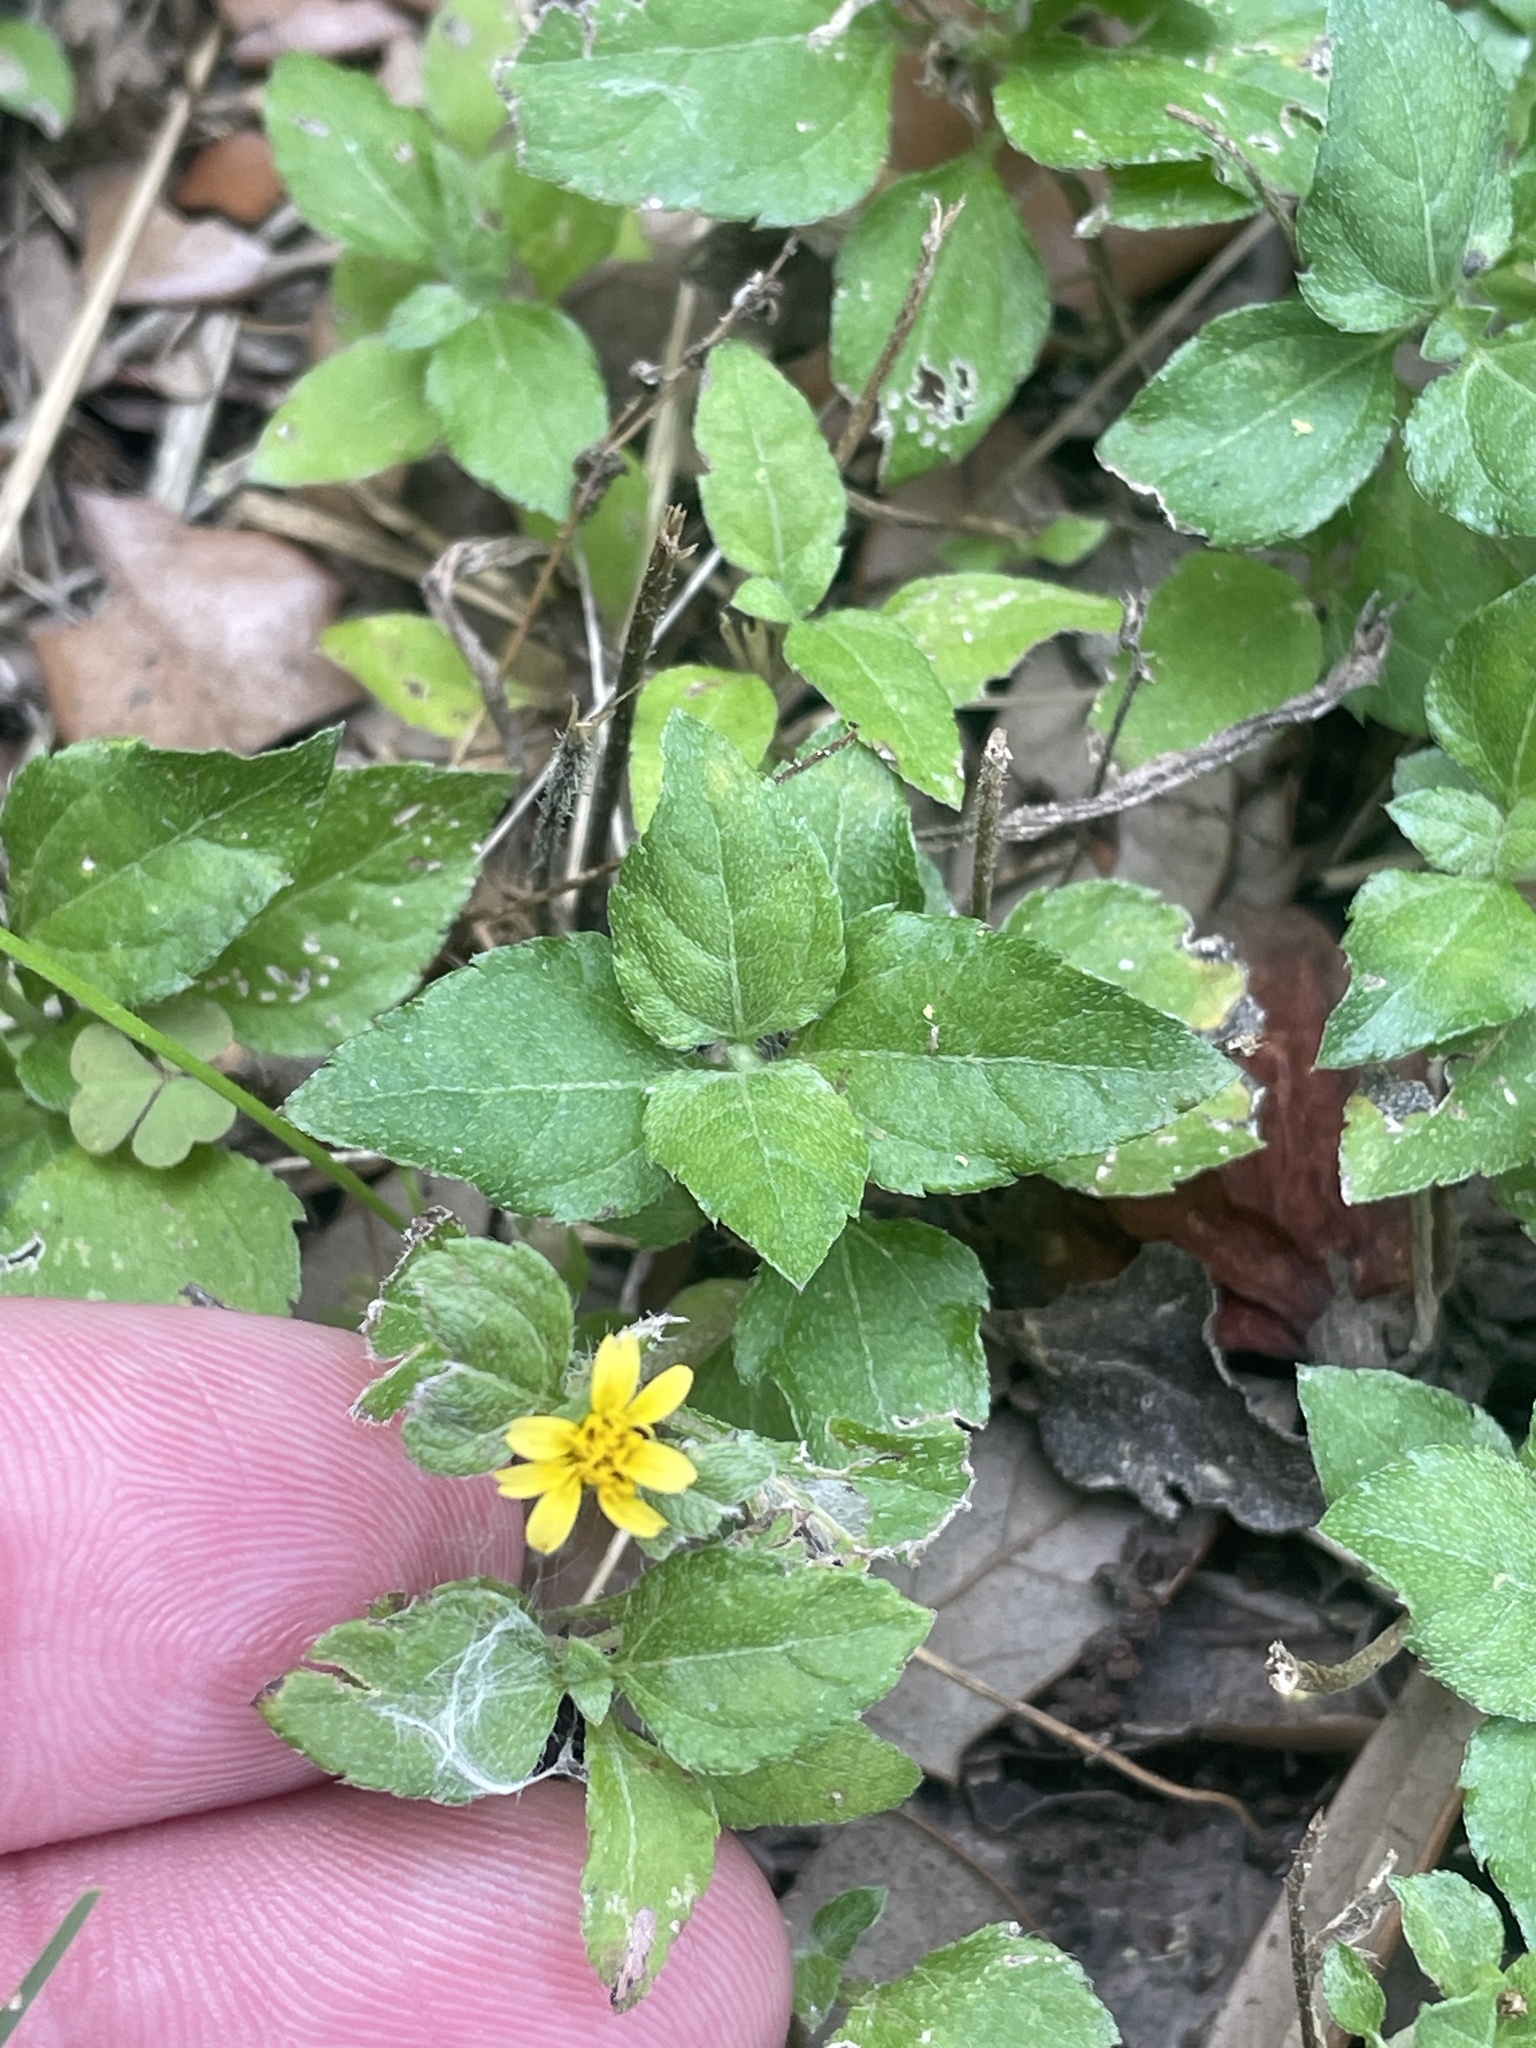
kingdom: Plantae
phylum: Tracheophyta
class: Magnoliopsida
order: Asterales
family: Asteraceae
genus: Calyptocarpus
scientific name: Calyptocarpus vialis
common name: Straggler daisy
